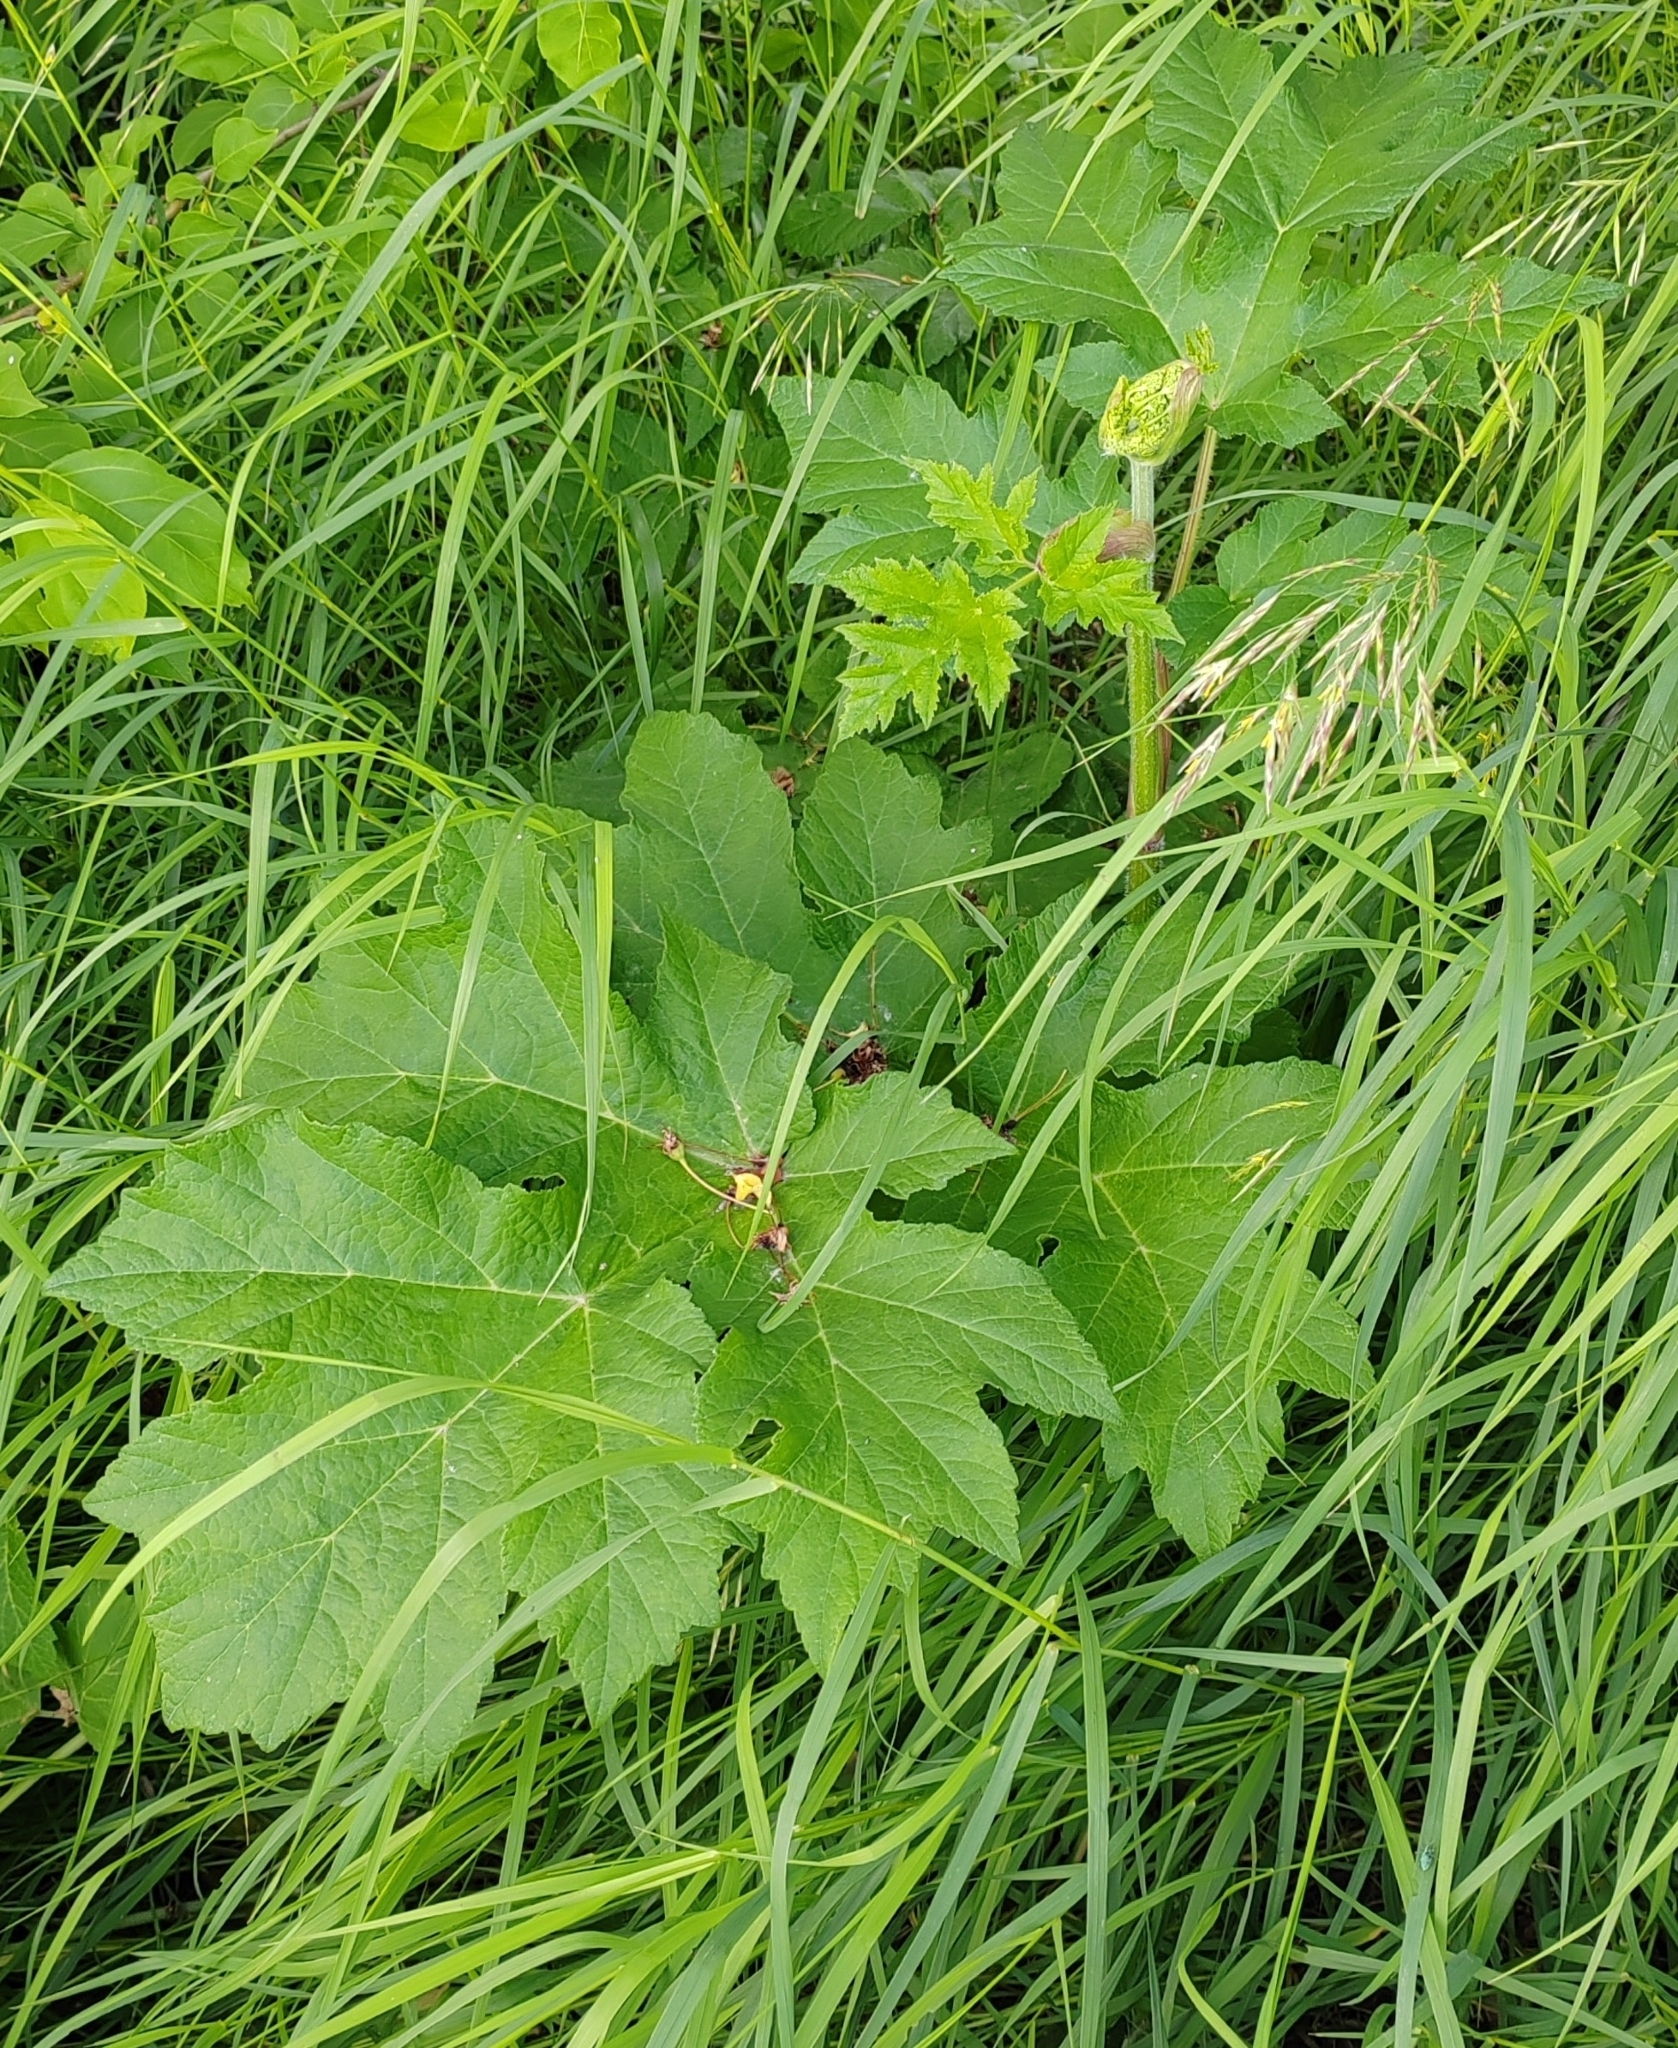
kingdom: Plantae
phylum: Tracheophyta
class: Magnoliopsida
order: Apiales
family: Apiaceae
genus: Heracleum
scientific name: Heracleum sphondylium
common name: Hogweed
